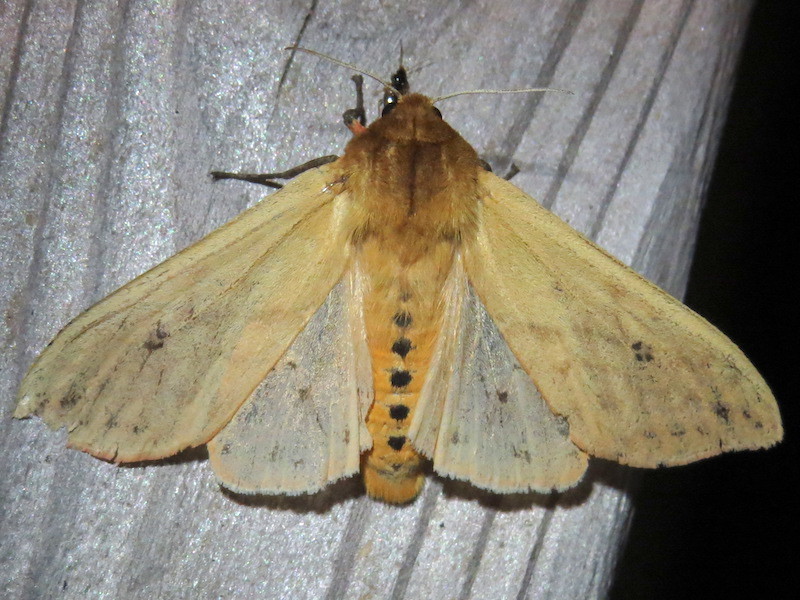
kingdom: Animalia
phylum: Arthropoda
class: Insecta
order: Lepidoptera
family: Erebidae
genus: Pyrrharctia
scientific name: Pyrrharctia isabella
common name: Isabella tiger moth
